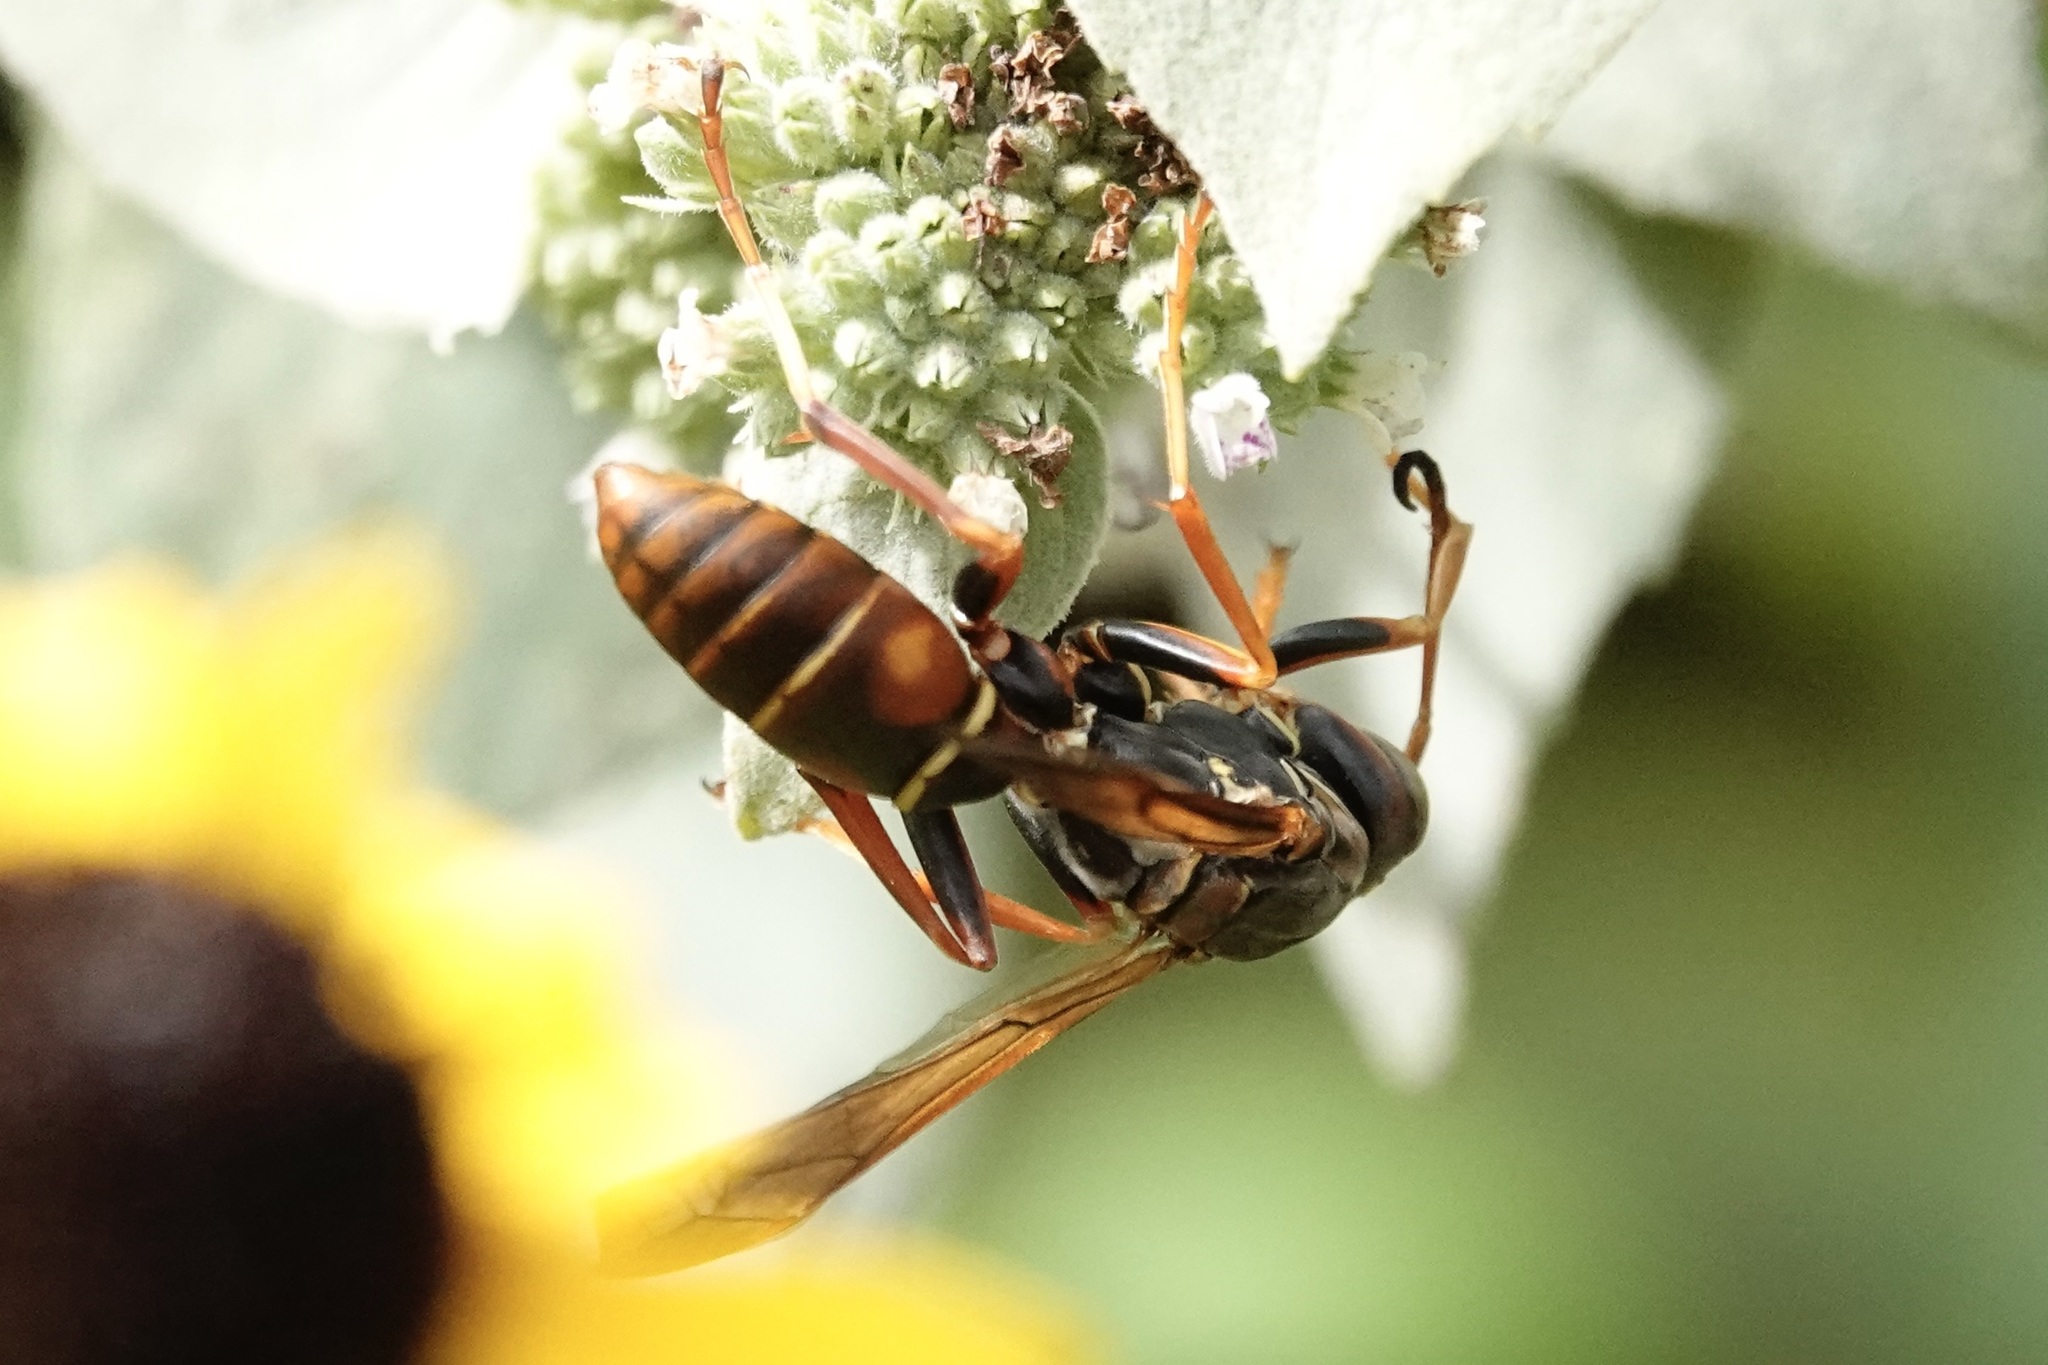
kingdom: Animalia
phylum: Arthropoda
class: Insecta
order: Hymenoptera
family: Eumenidae
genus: Polistes
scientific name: Polistes fuscatus
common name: Dark paper wasp
